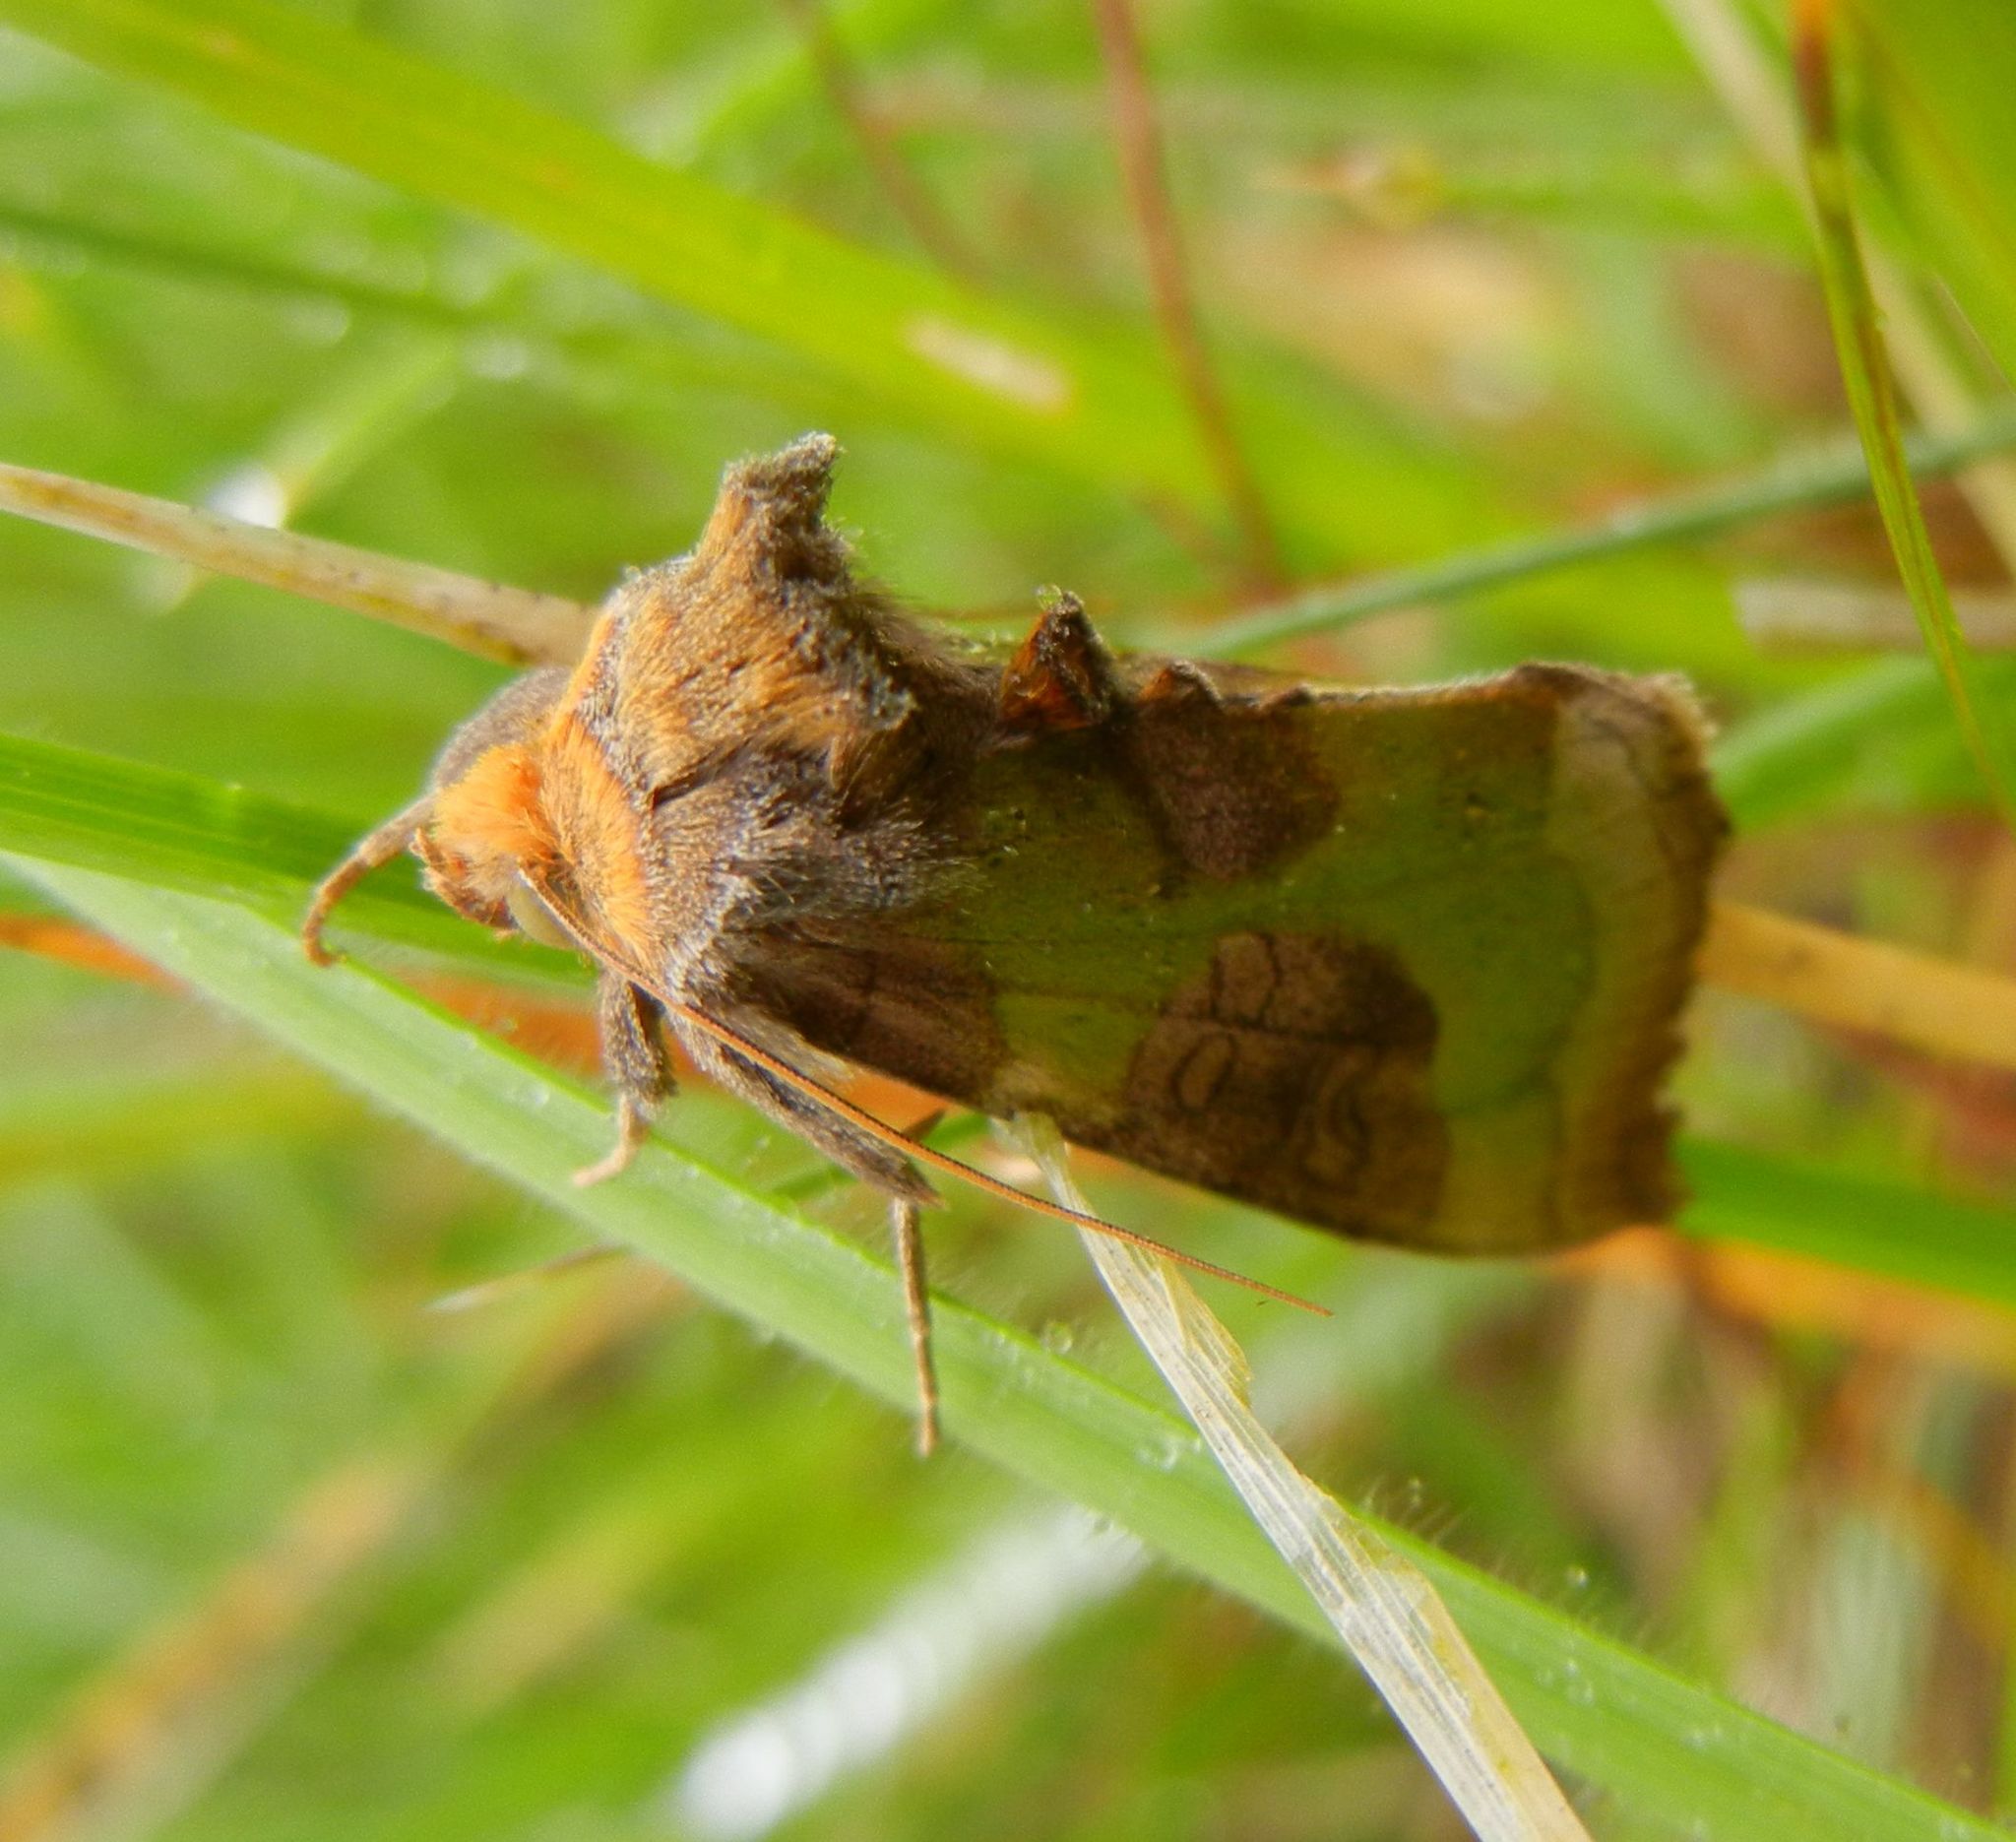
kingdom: Animalia
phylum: Arthropoda
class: Insecta
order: Lepidoptera
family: Noctuidae
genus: Diachrysia
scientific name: Diachrysia chrysitis
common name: Burnished brass
